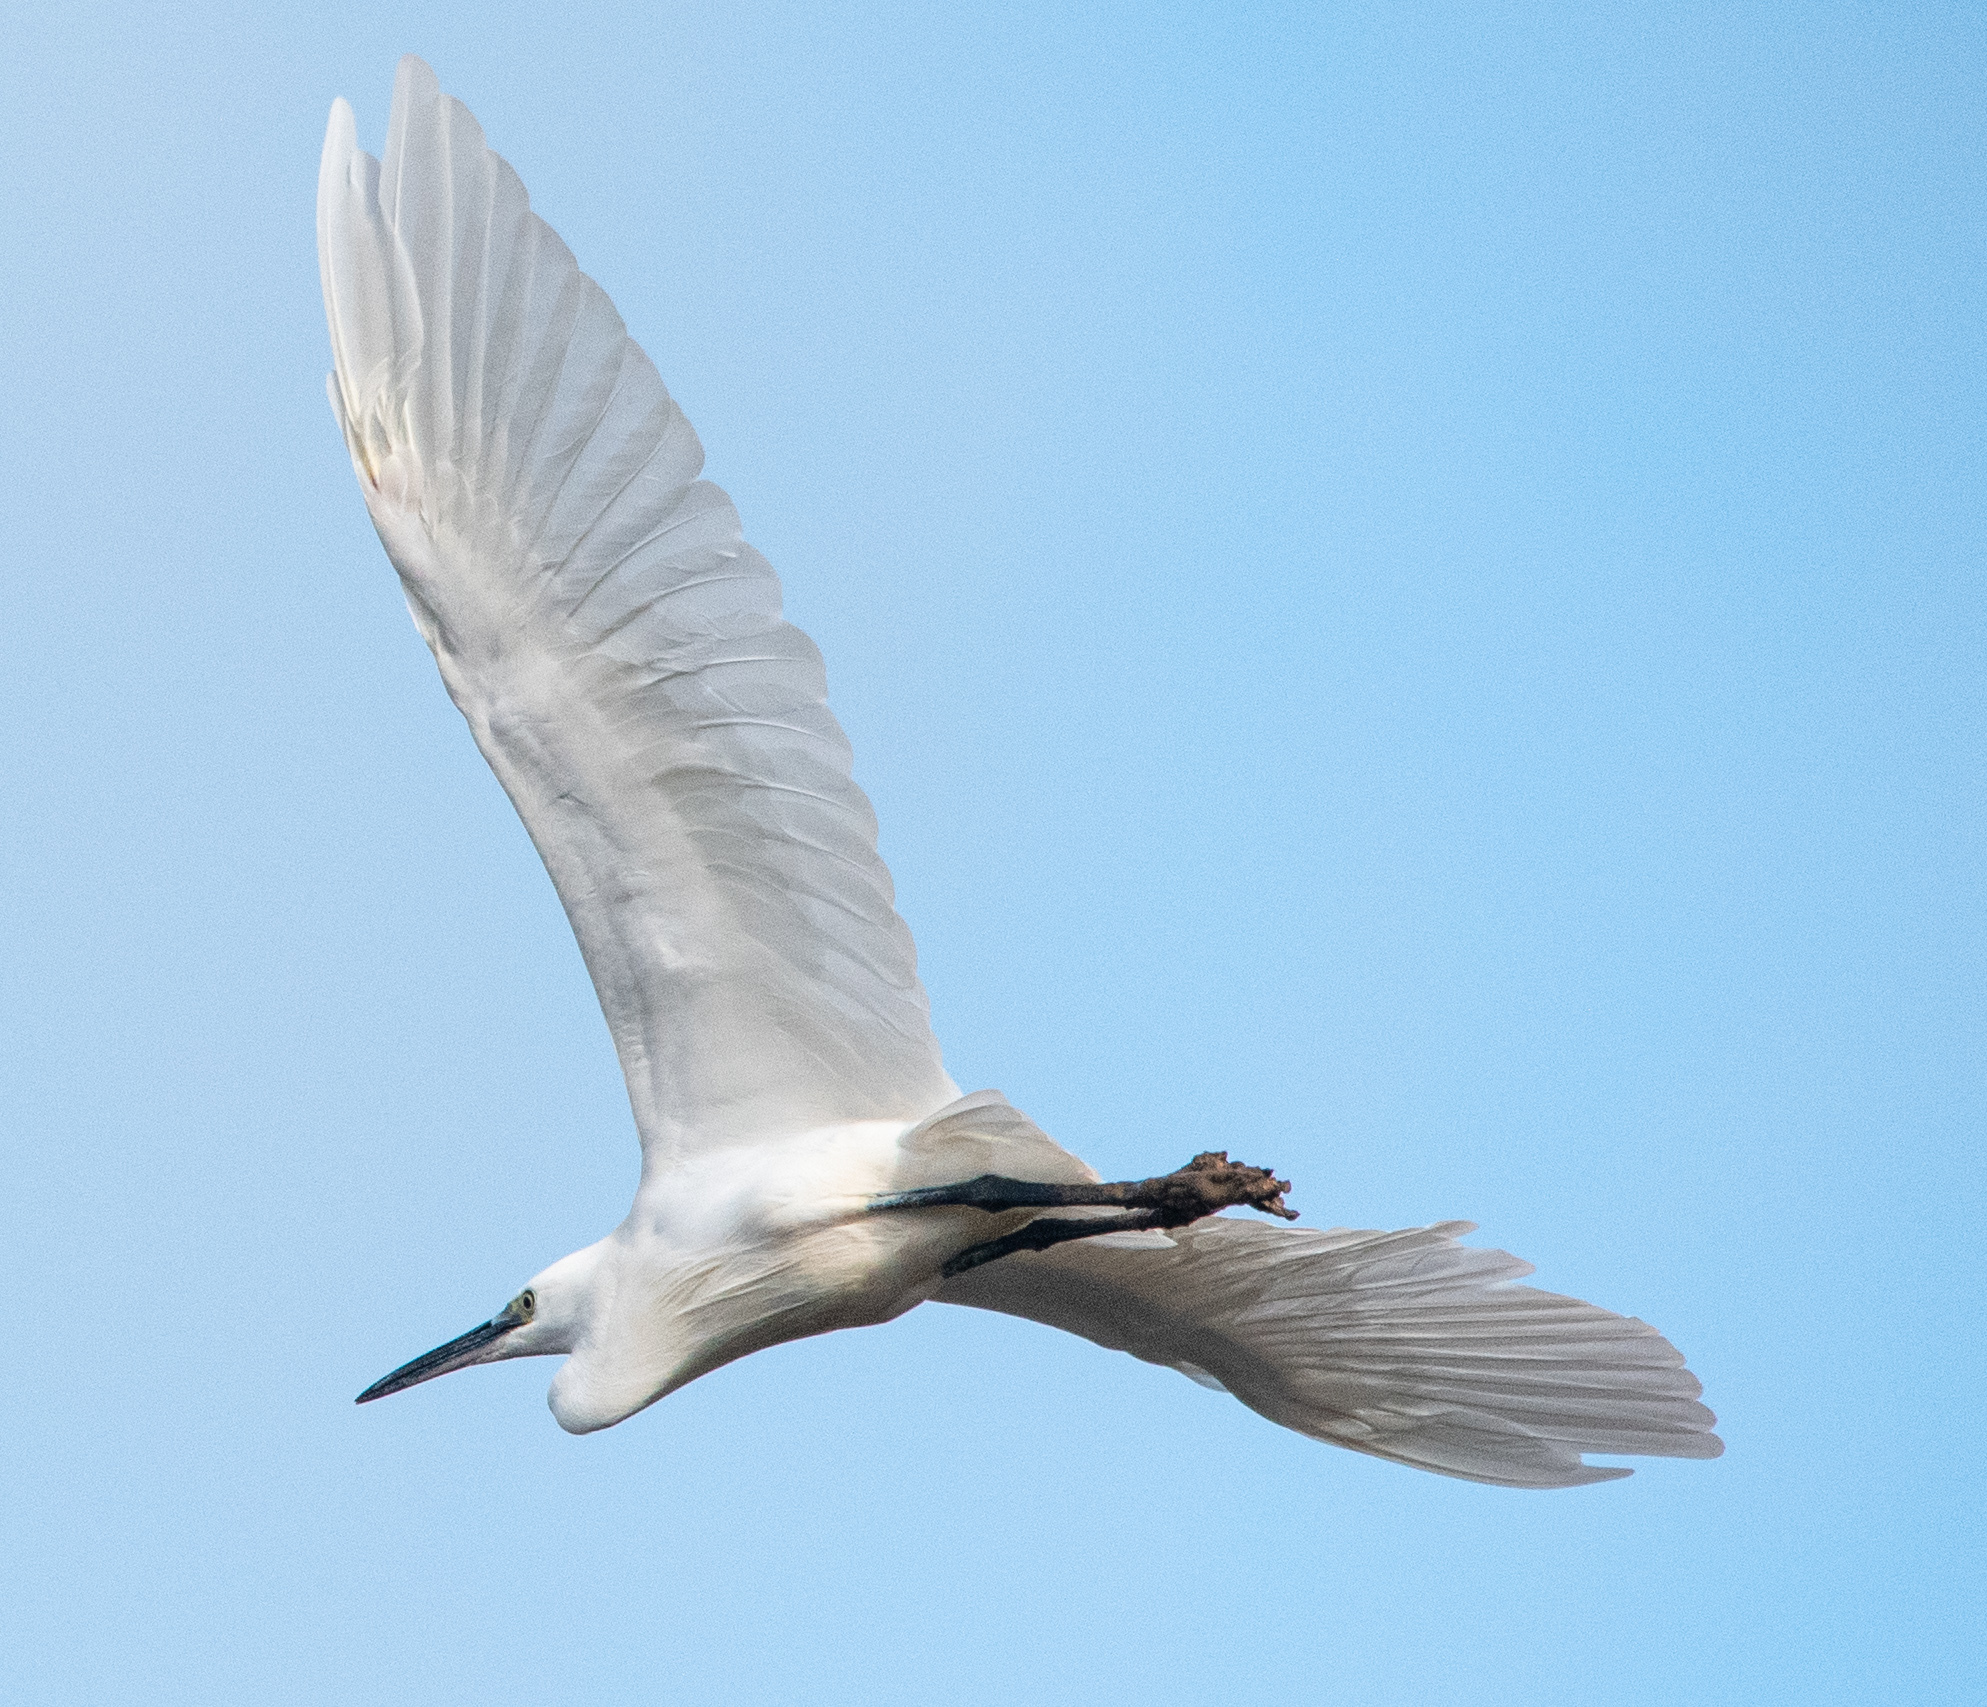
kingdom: Animalia
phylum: Chordata
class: Aves
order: Pelecaniformes
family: Ardeidae
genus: Egretta
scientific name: Egretta garzetta
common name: Little egret
